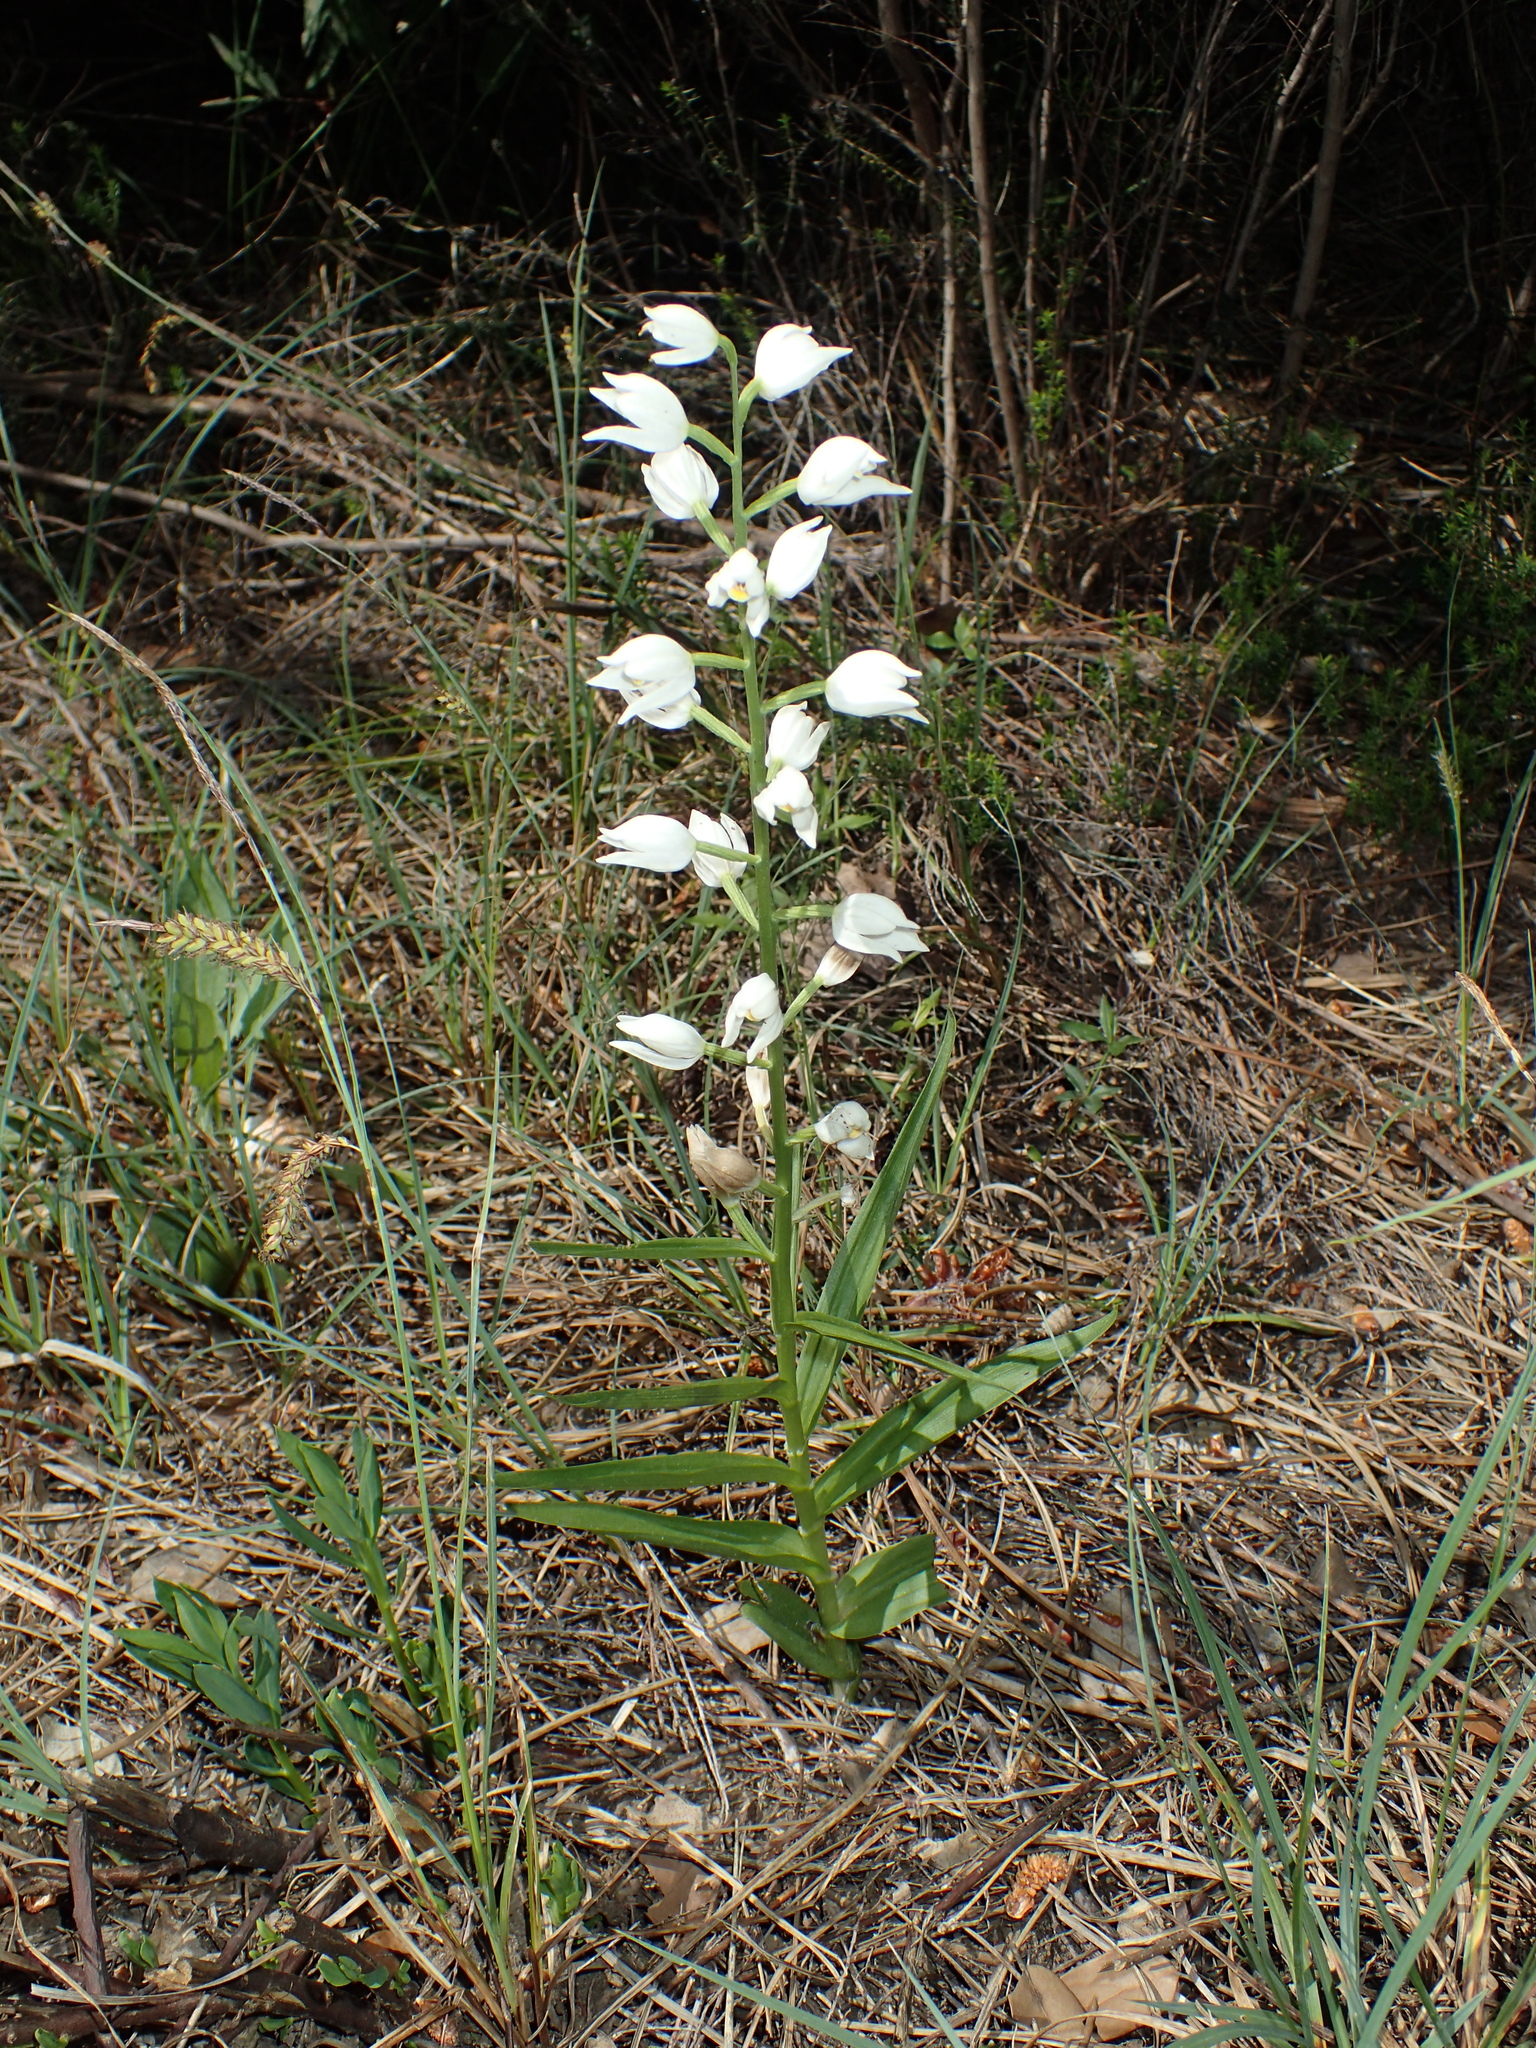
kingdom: Plantae
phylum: Tracheophyta
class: Liliopsida
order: Asparagales
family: Orchidaceae
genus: Cephalanthera
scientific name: Cephalanthera longifolia
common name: Narrow-leaved helleborine
